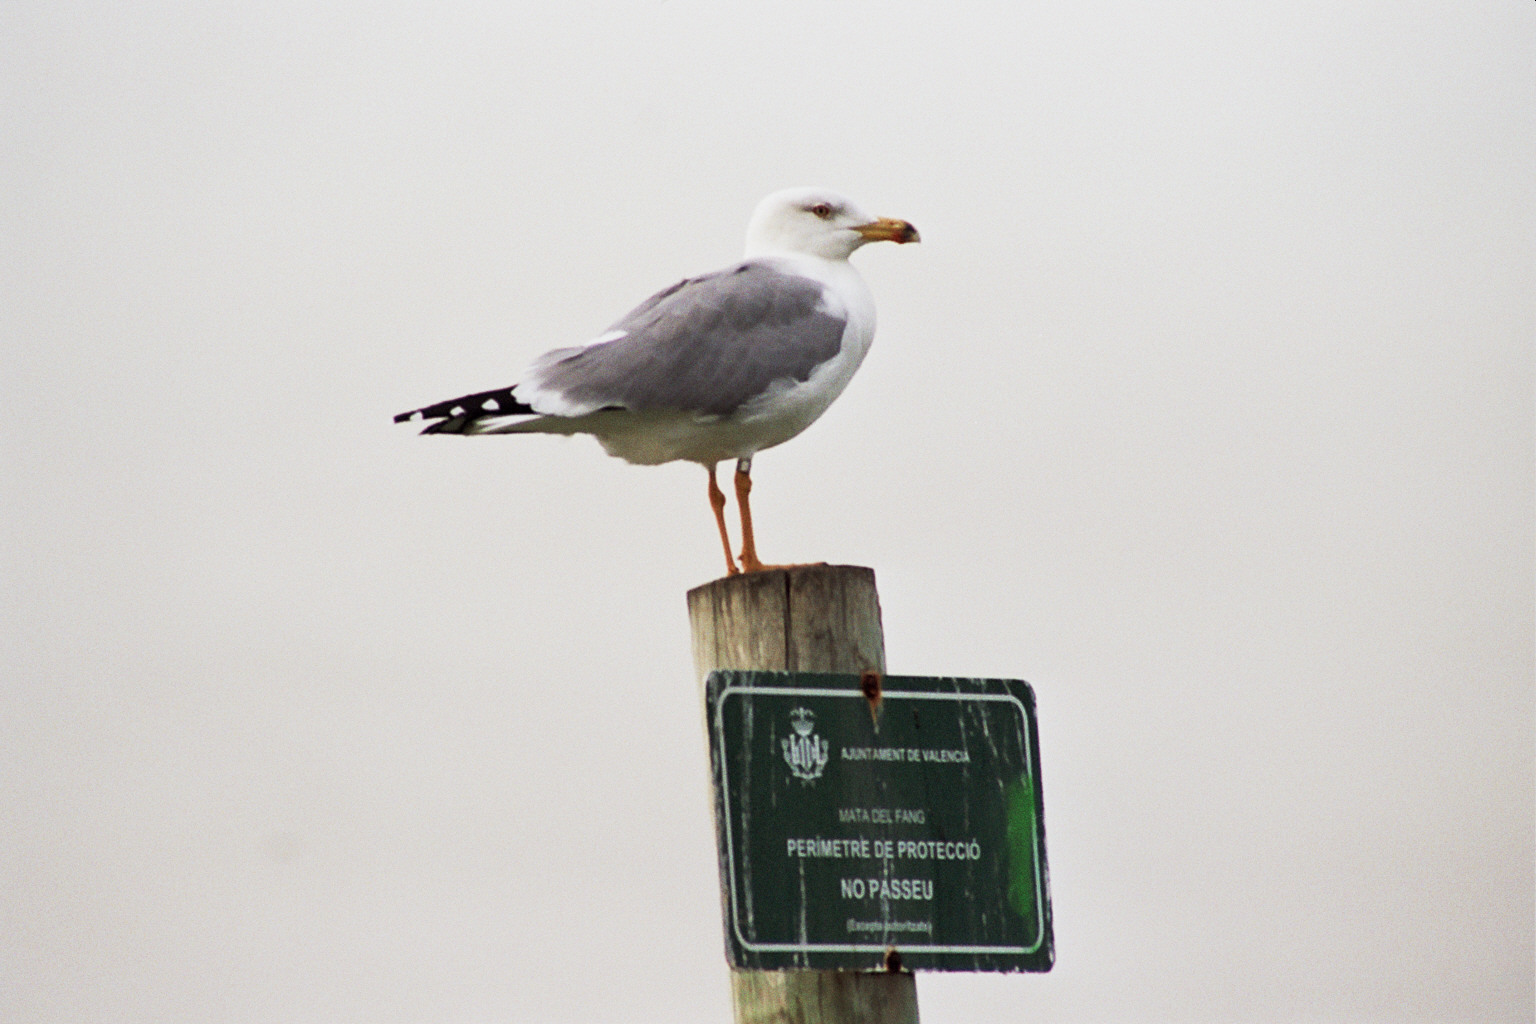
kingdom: Animalia
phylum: Chordata
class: Aves
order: Charadriiformes
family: Laridae
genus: Larus
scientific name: Larus michahellis
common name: Yellow-legged gull
